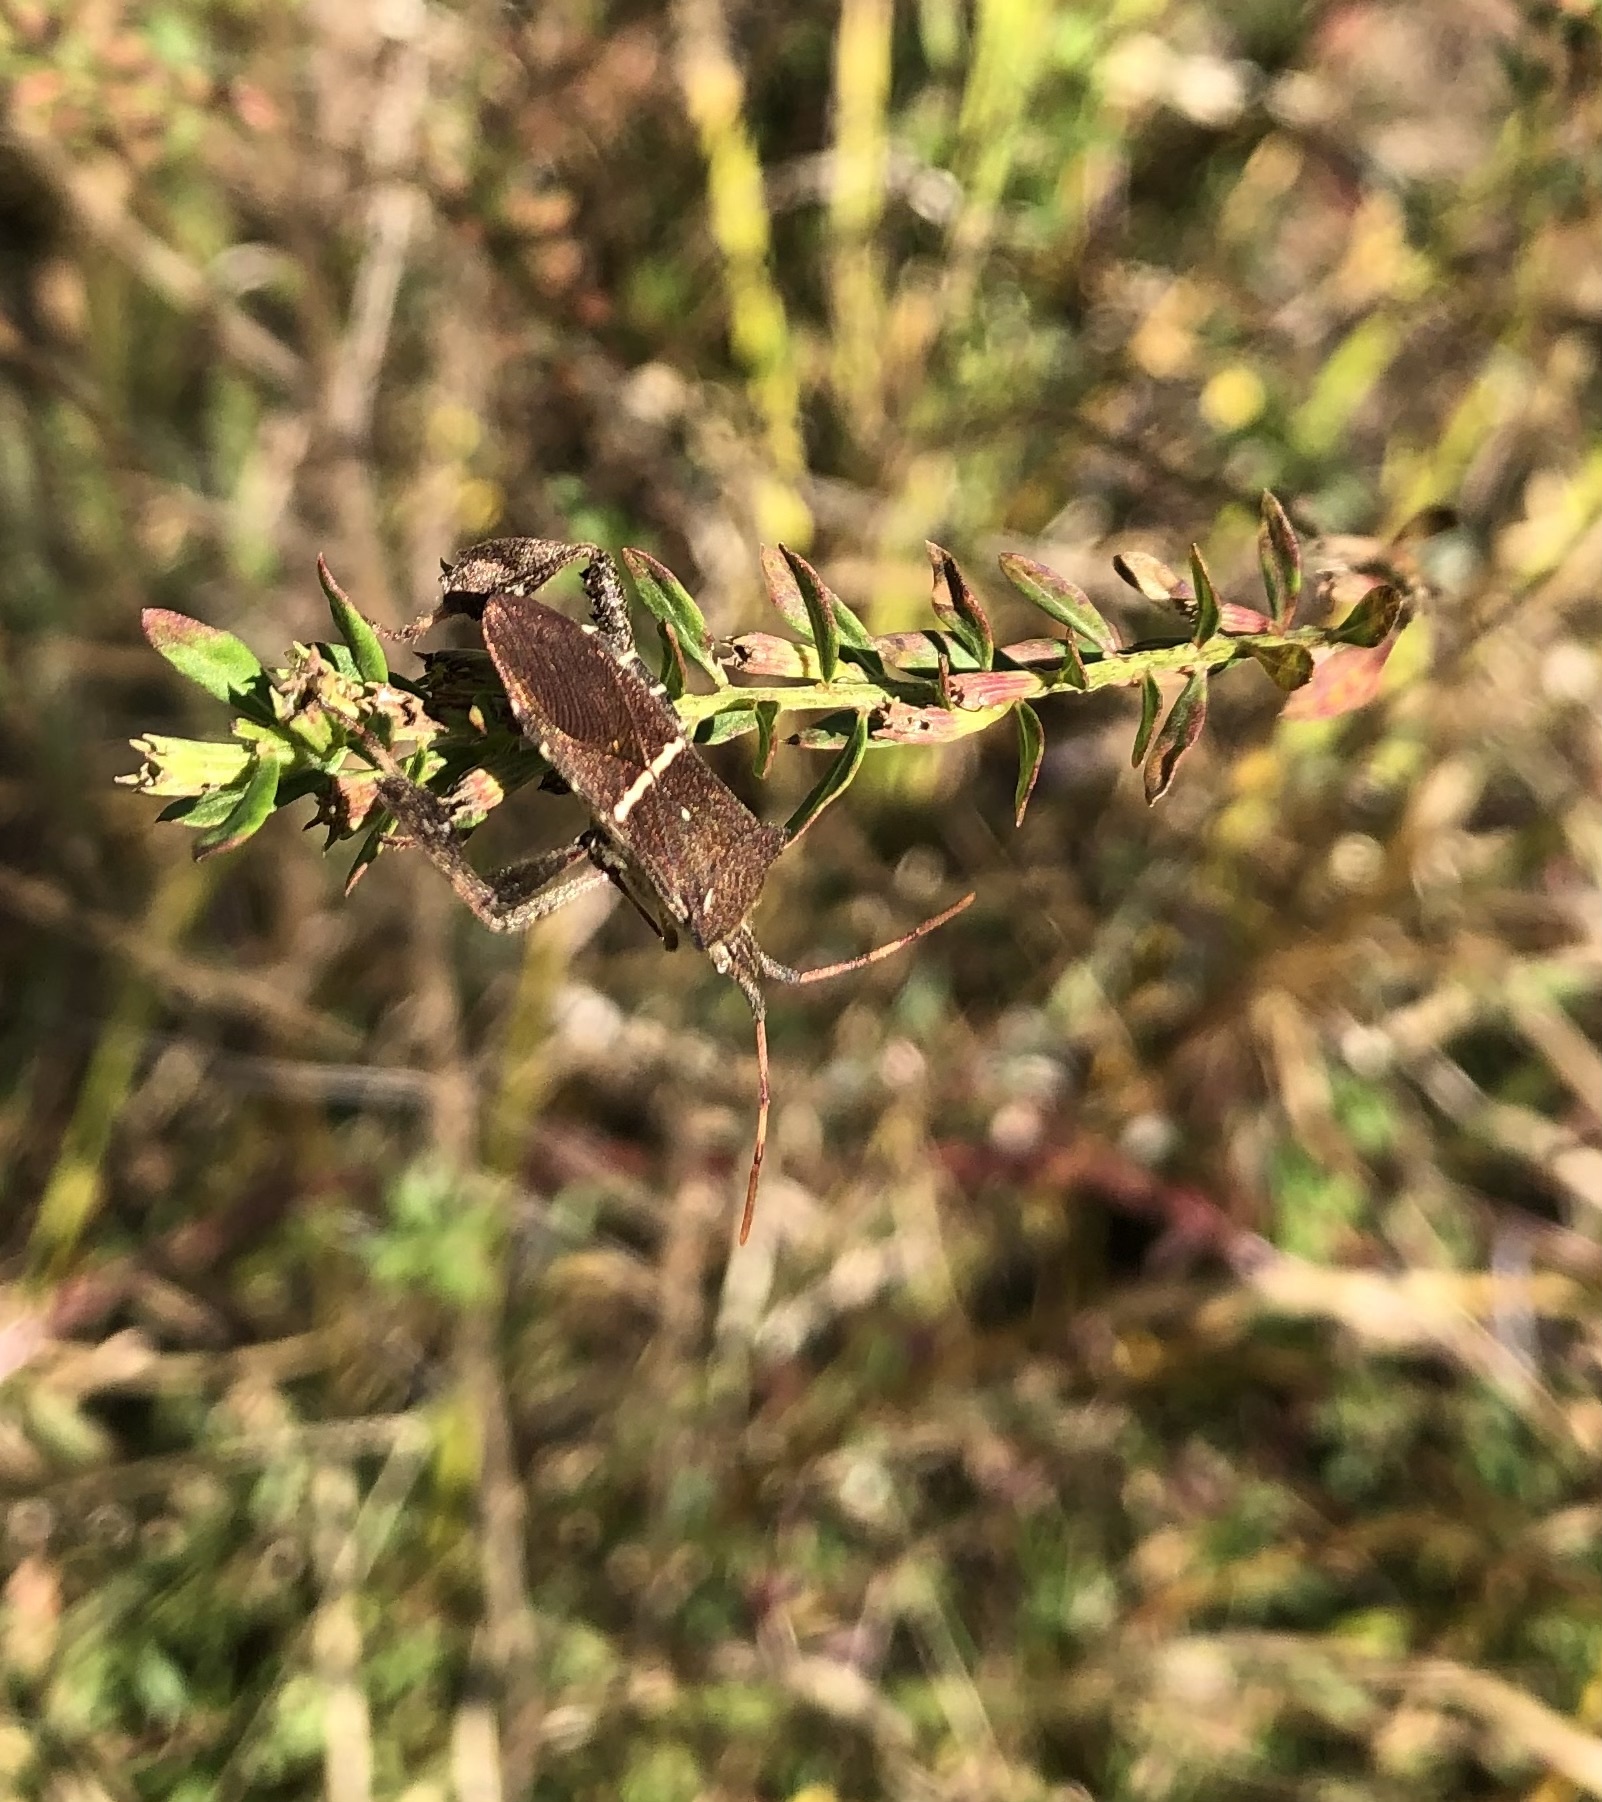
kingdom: Animalia
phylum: Arthropoda
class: Insecta
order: Hemiptera
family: Coreidae
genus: Leptoglossus
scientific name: Leptoglossus phyllopus
